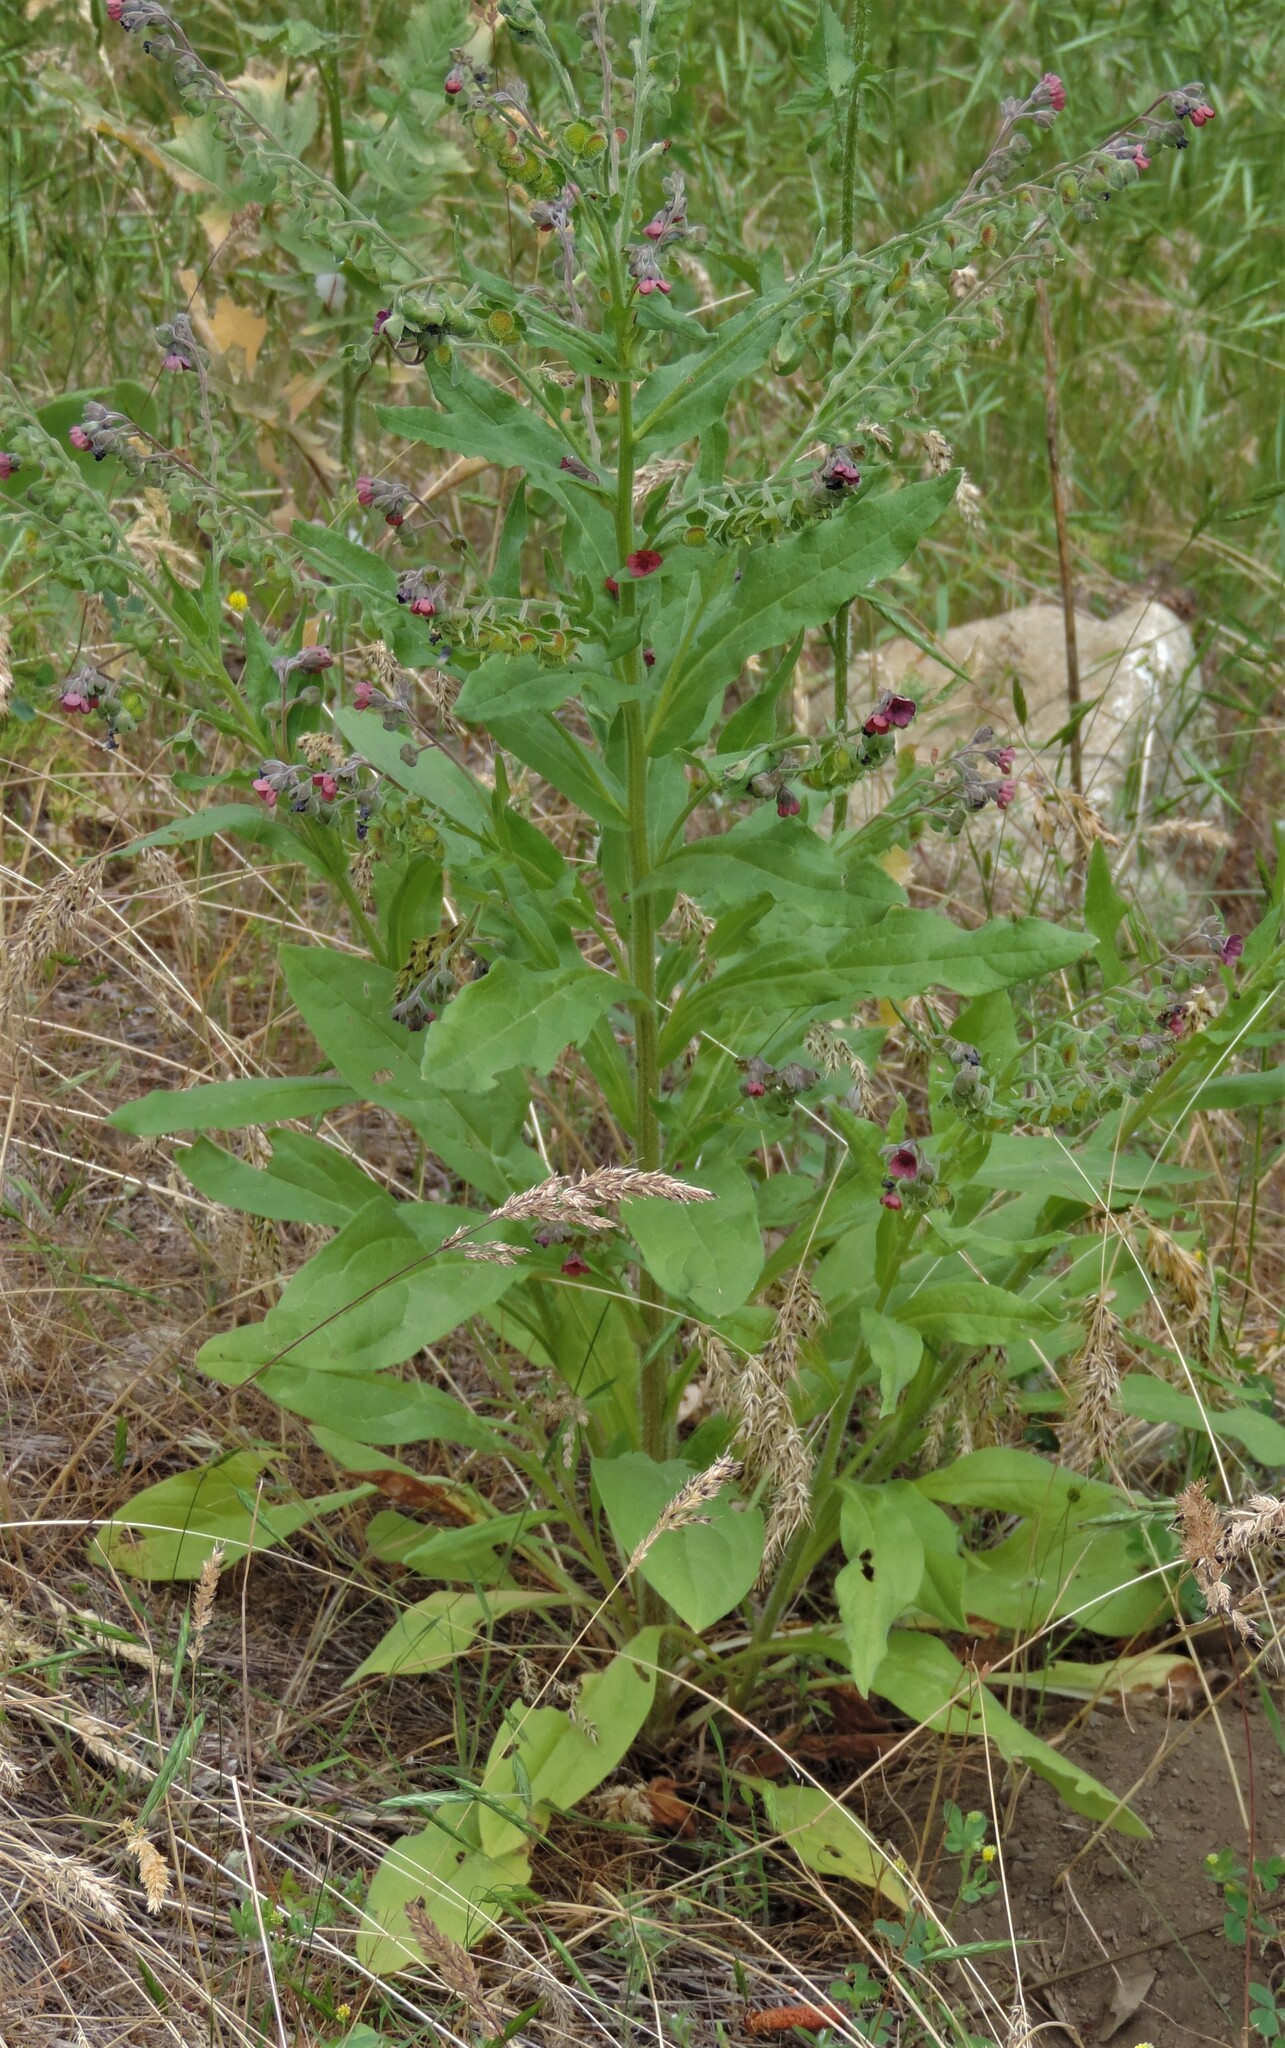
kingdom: Plantae
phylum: Tracheophyta
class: Magnoliopsida
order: Boraginales
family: Boraginaceae
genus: Cynoglossum
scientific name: Cynoglossum officinale
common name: Hound's-tongue
